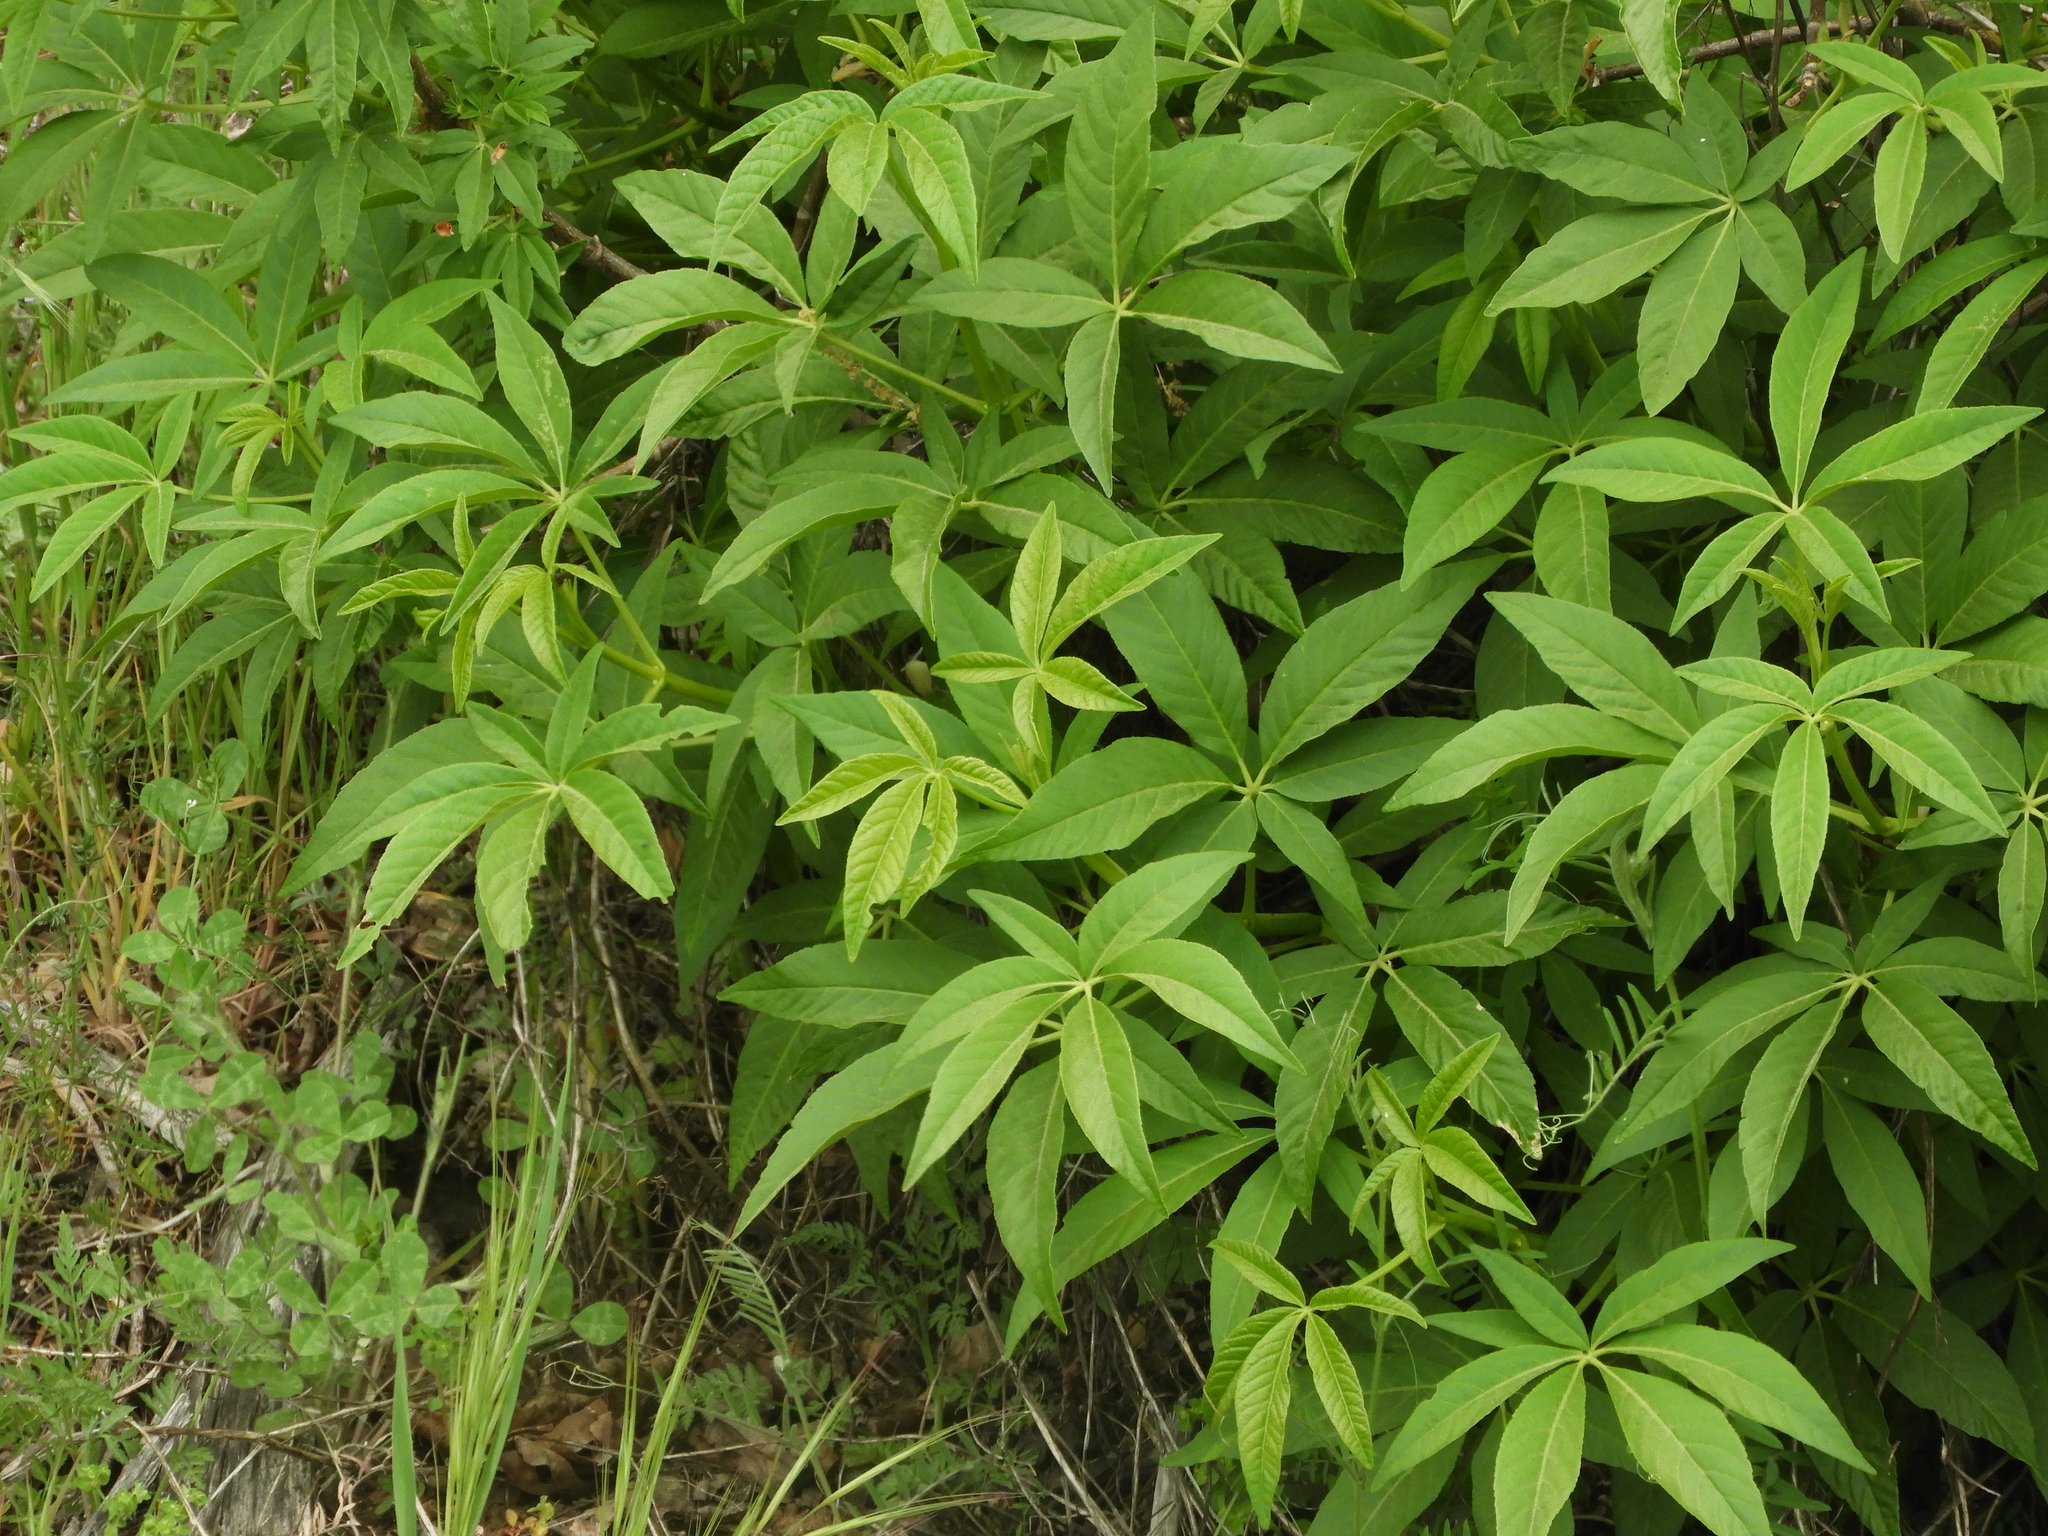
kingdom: Plantae
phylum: Tracheophyta
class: Magnoliopsida
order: Sapindales
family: Sapindaceae
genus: Aesculus
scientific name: Aesculus californica
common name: California buckeye
